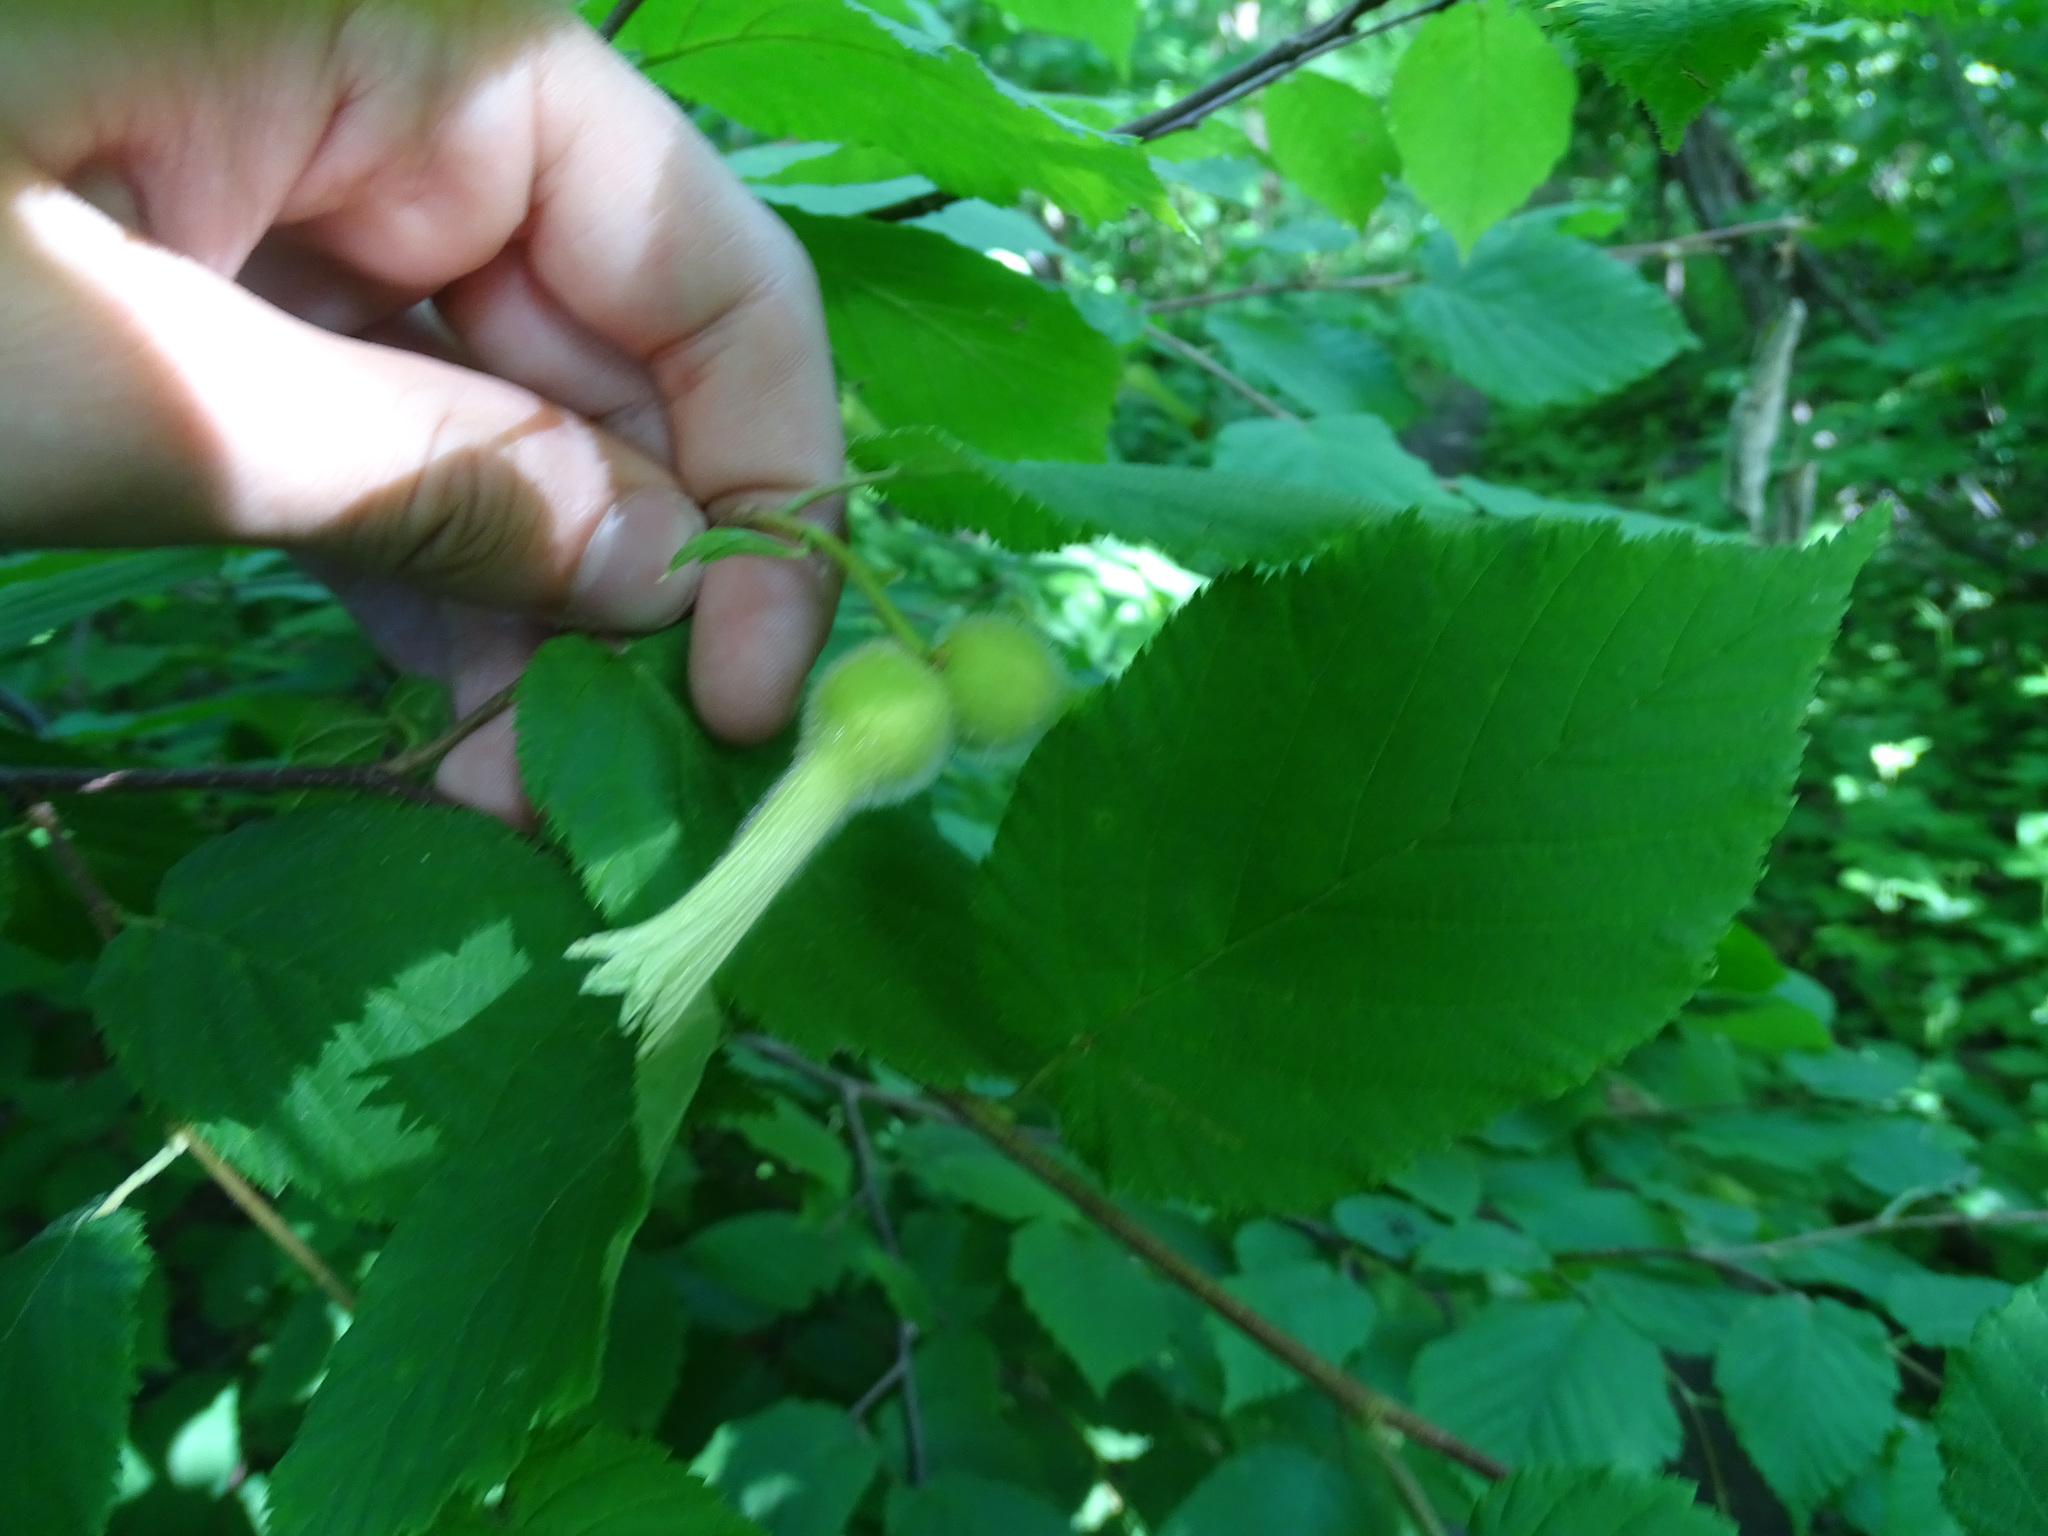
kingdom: Plantae
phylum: Tracheophyta
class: Magnoliopsida
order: Fagales
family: Betulaceae
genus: Corylus
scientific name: Corylus cornuta
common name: Beaked hazel
